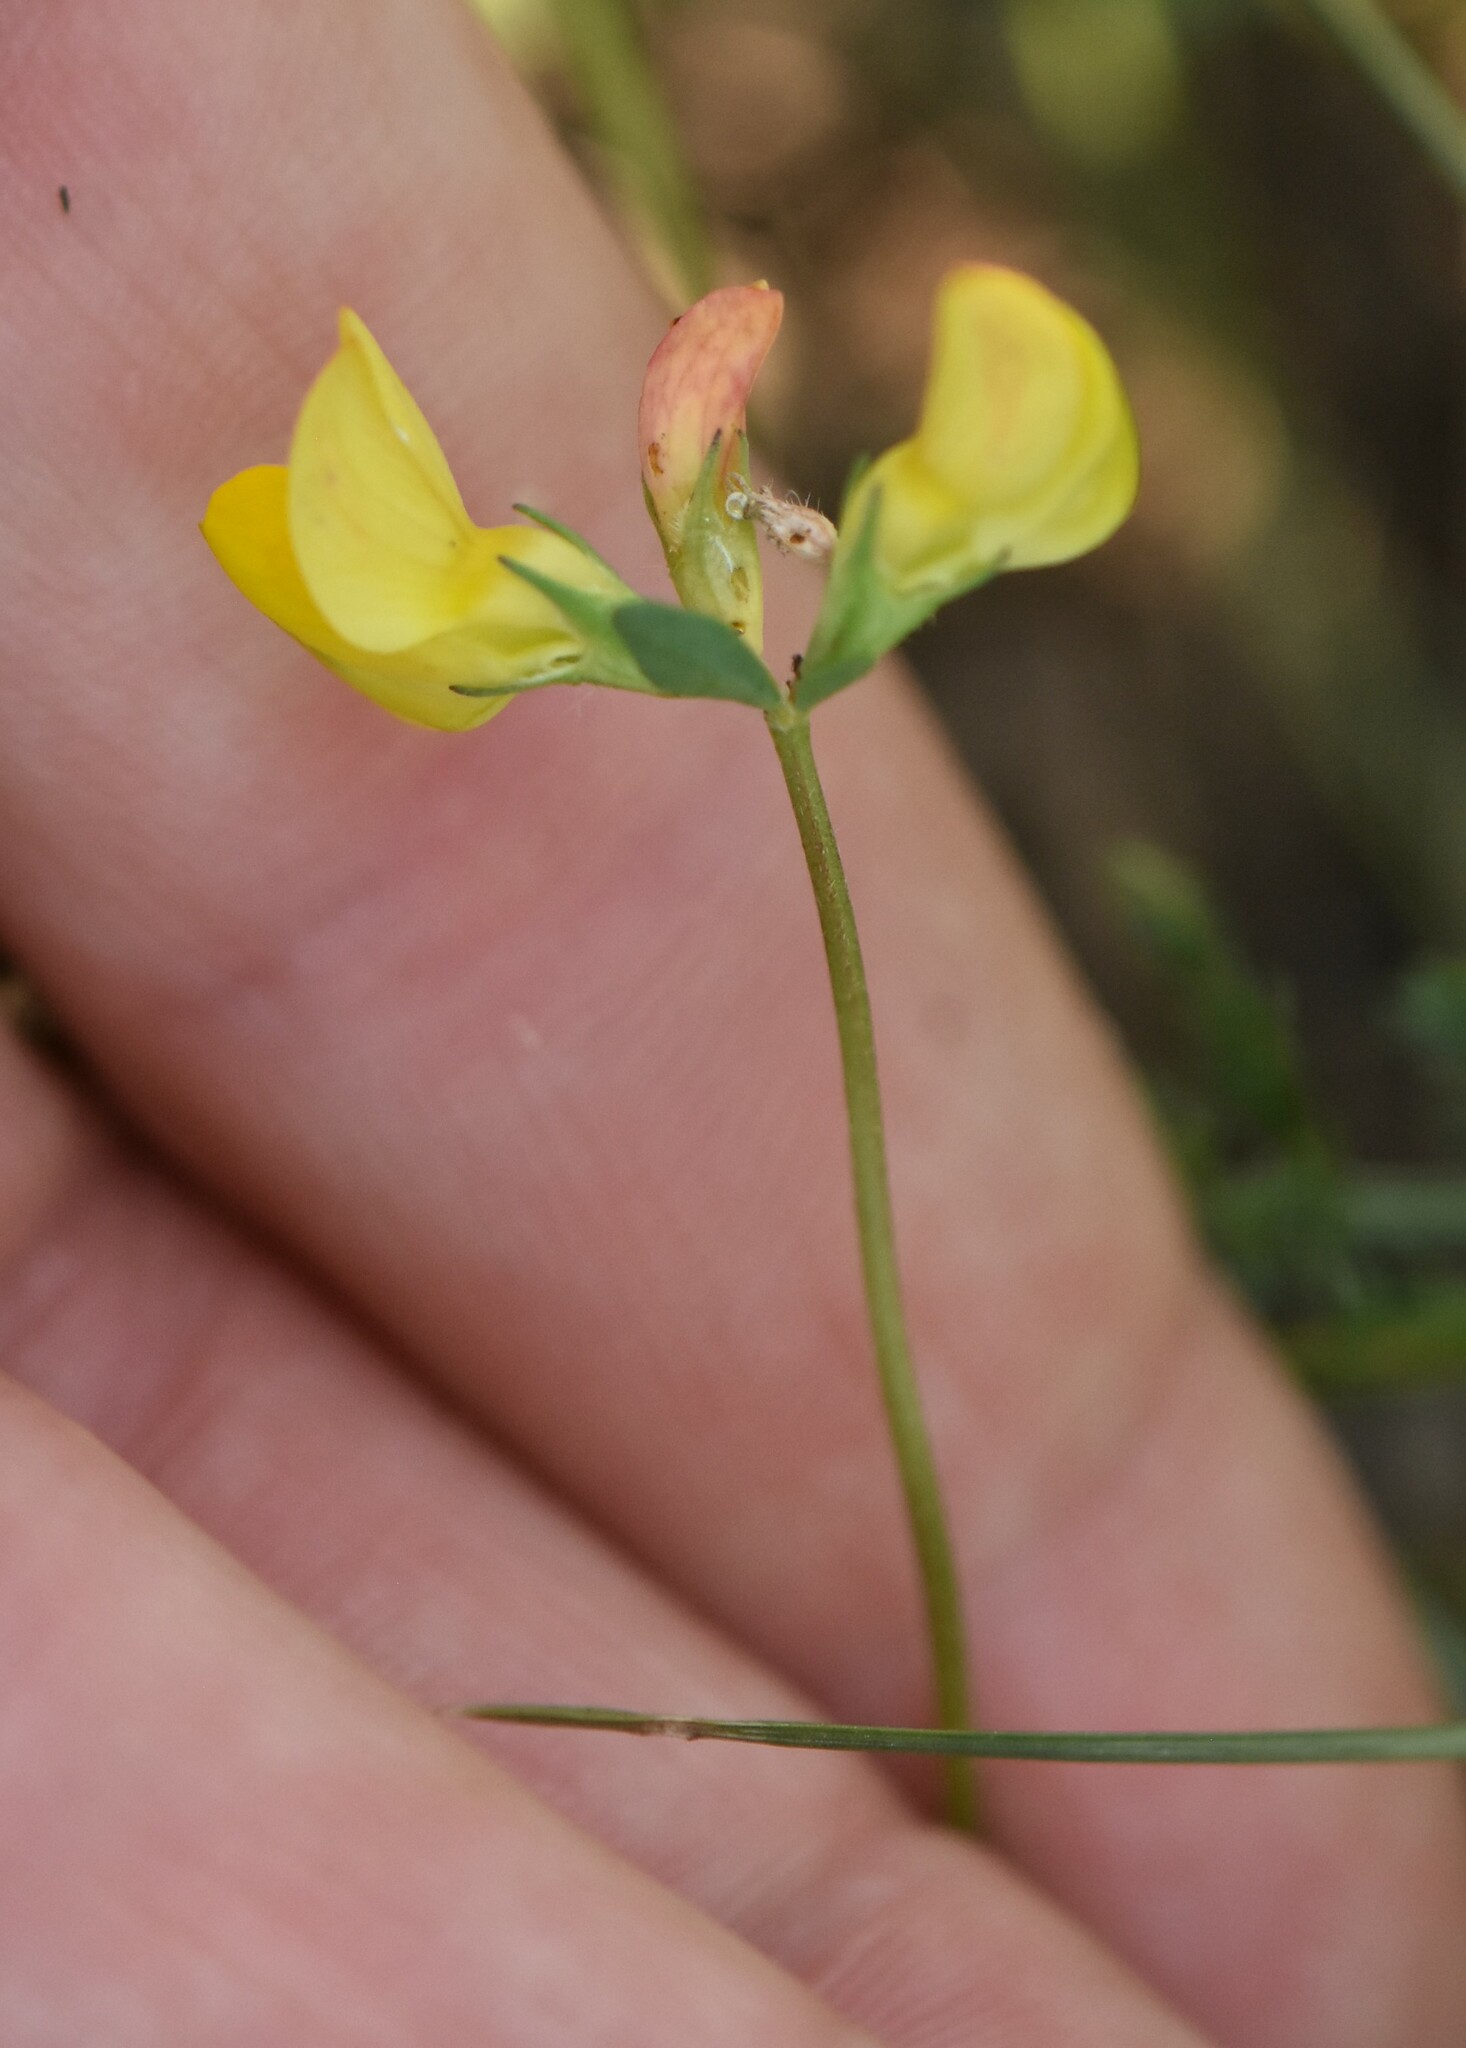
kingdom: Plantae
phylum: Tracheophyta
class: Magnoliopsida
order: Fabales
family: Fabaceae
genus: Lotus
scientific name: Lotus corniculatus
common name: Common bird's-foot-trefoil
